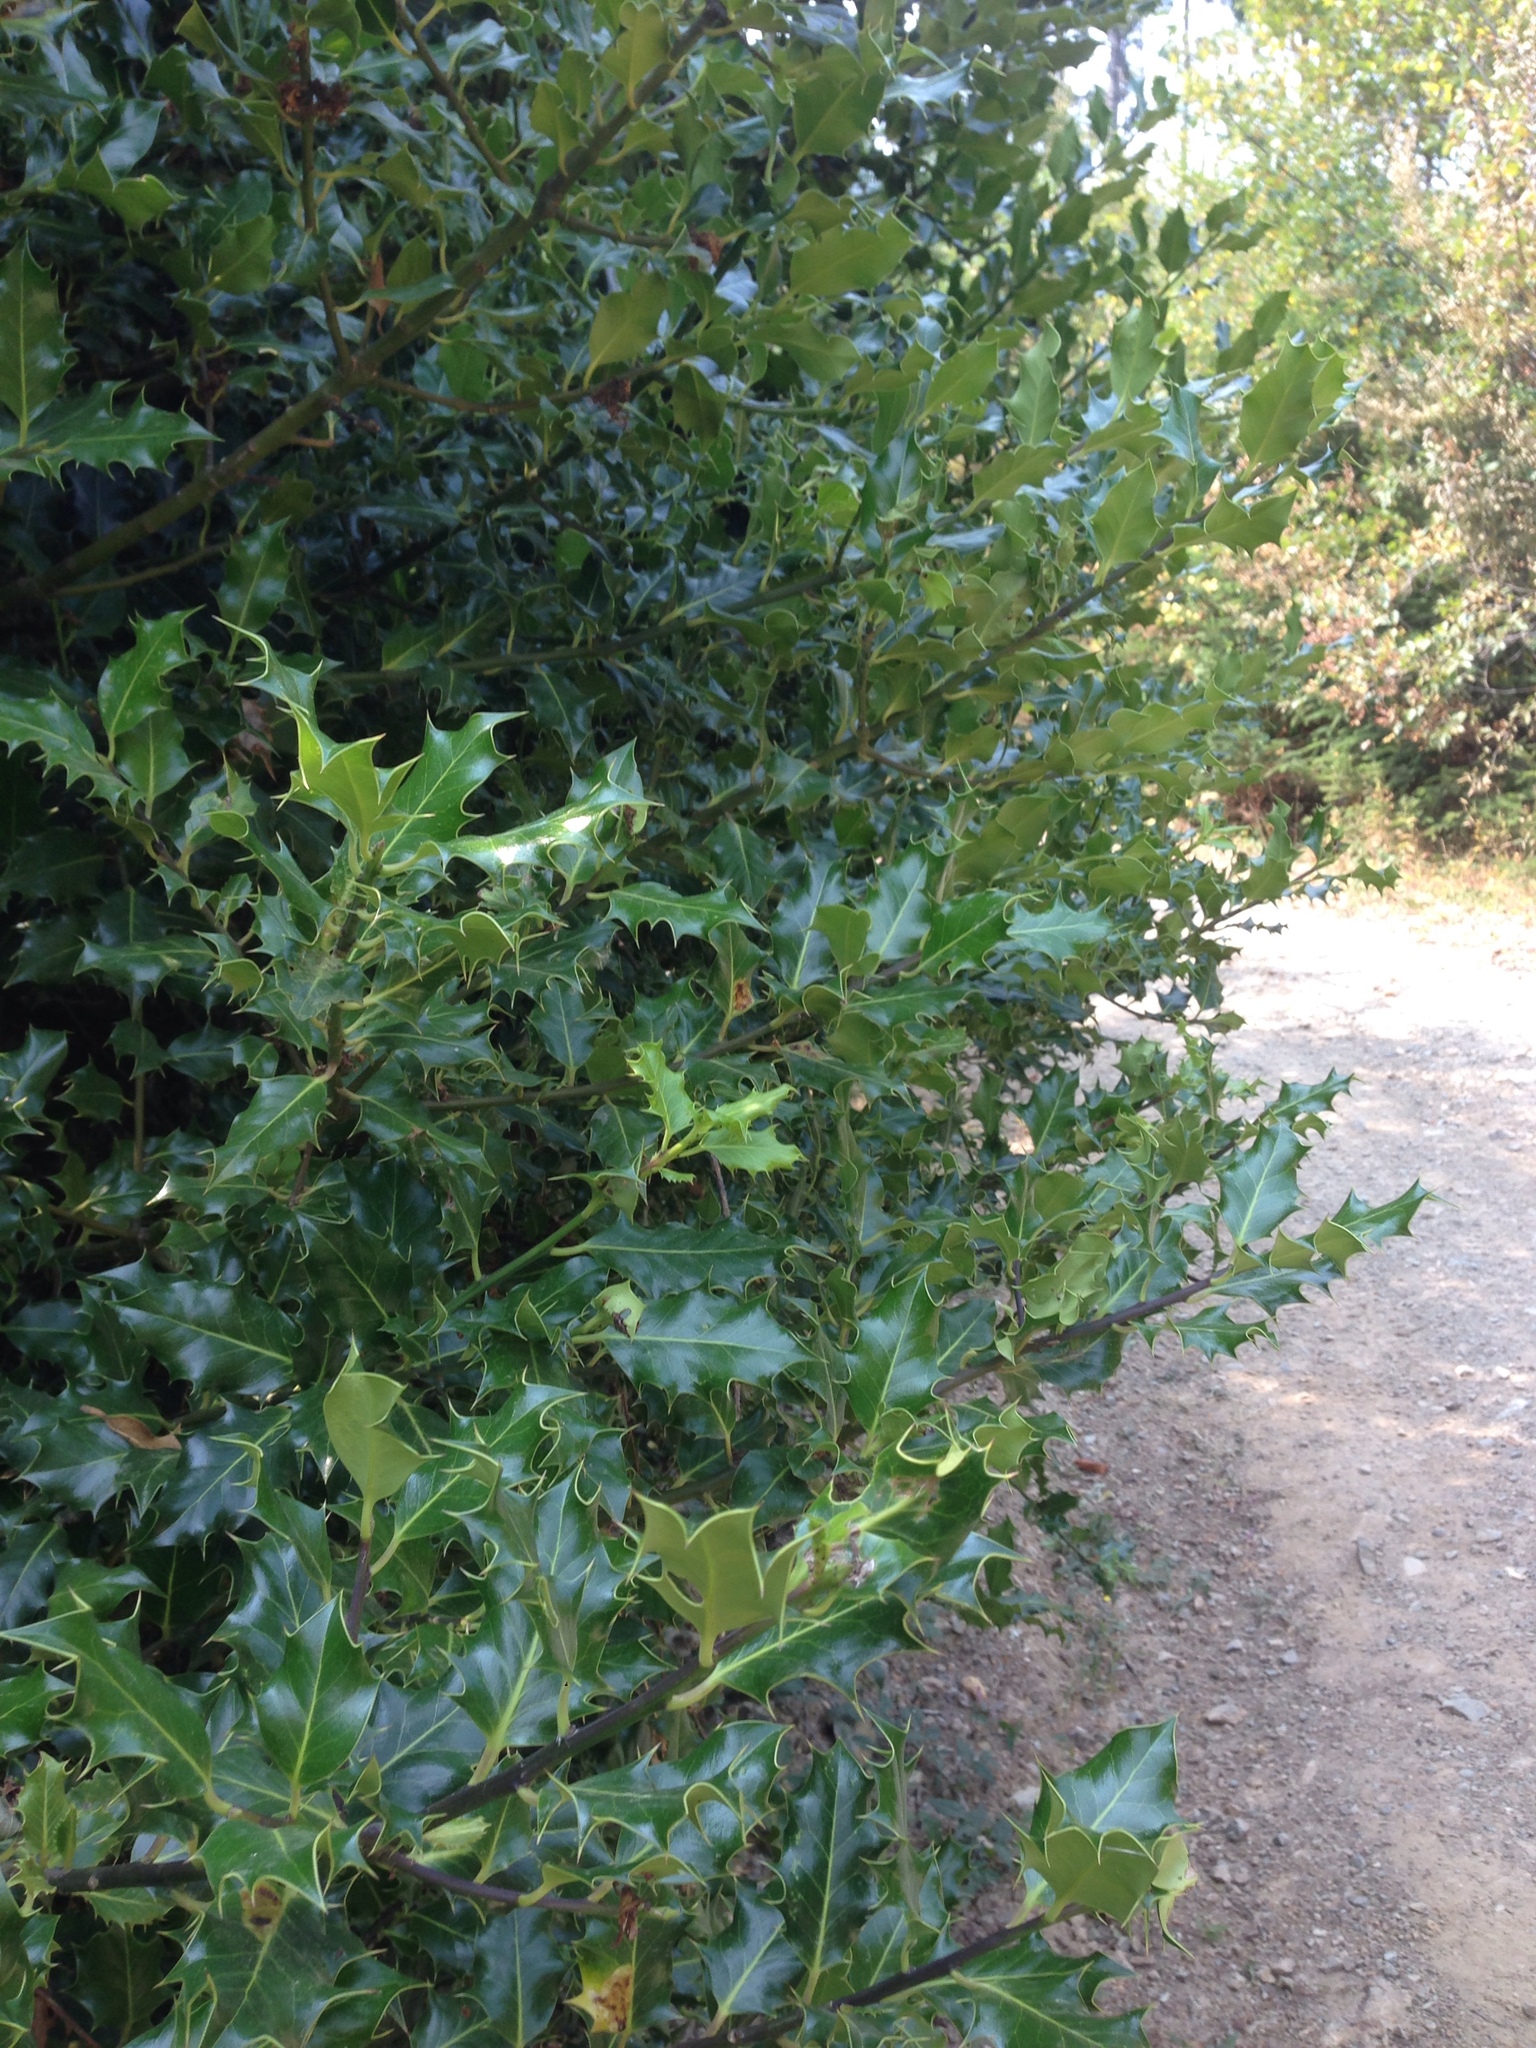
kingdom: Plantae
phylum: Tracheophyta
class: Magnoliopsida
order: Aquifoliales
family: Aquifoliaceae
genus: Ilex
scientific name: Ilex aquifolium
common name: English holly
